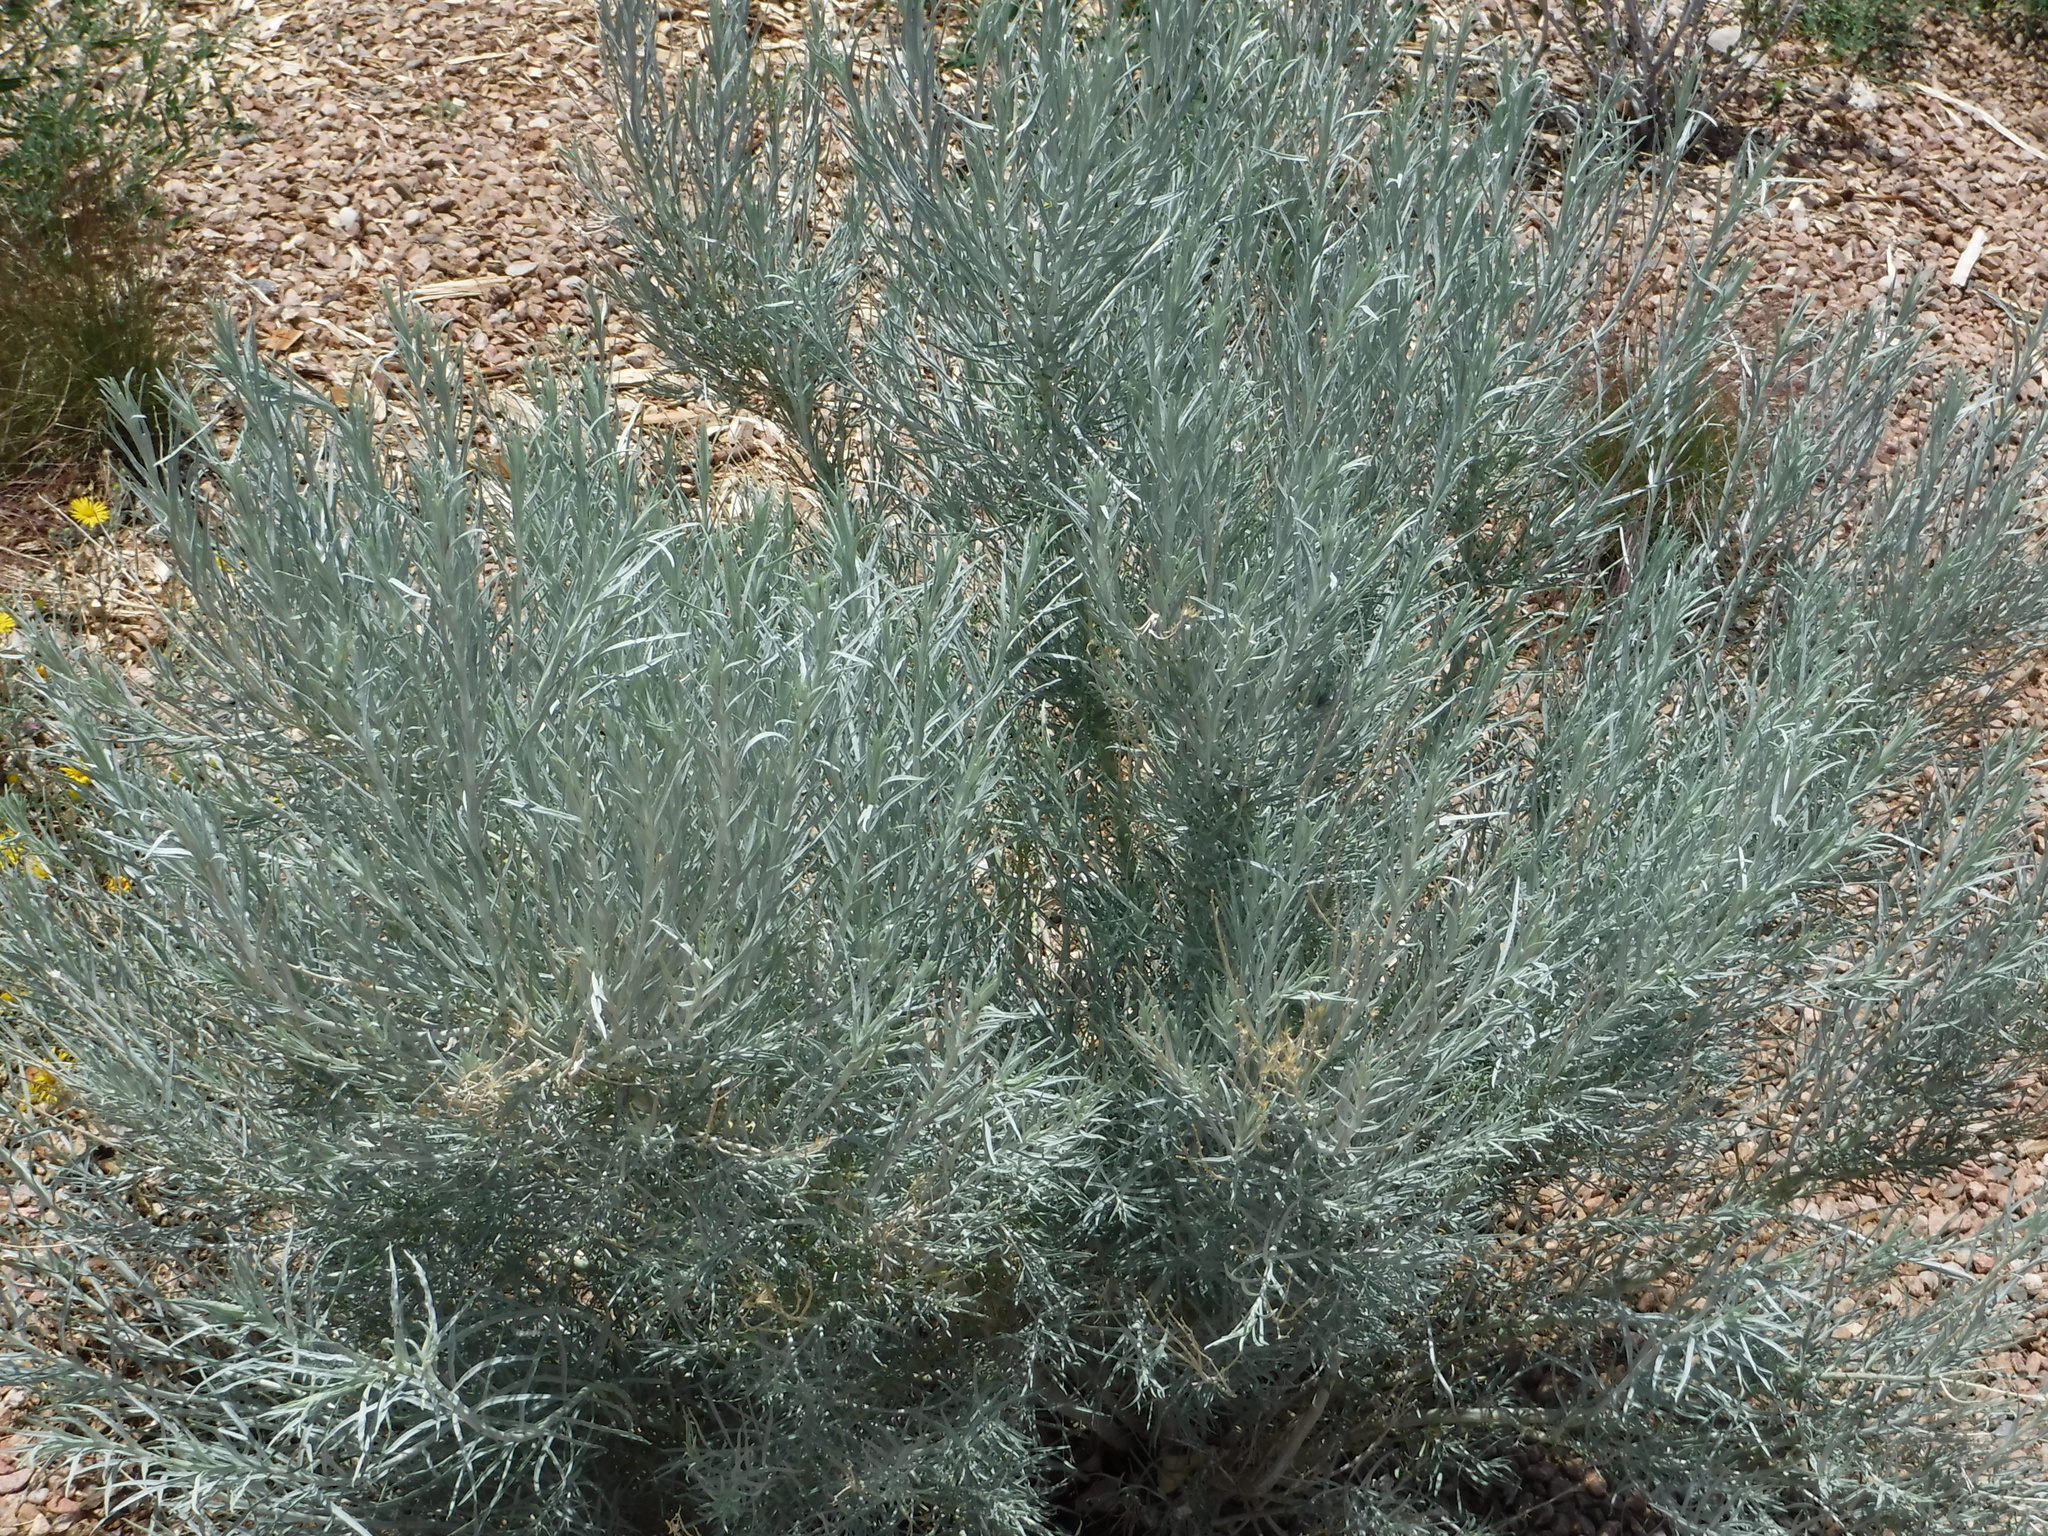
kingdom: Plantae
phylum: Tracheophyta
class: Magnoliopsida
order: Asterales
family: Asteraceae
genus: Ericameria
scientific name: Ericameria nauseosa
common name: Rubber rabbitbrush
